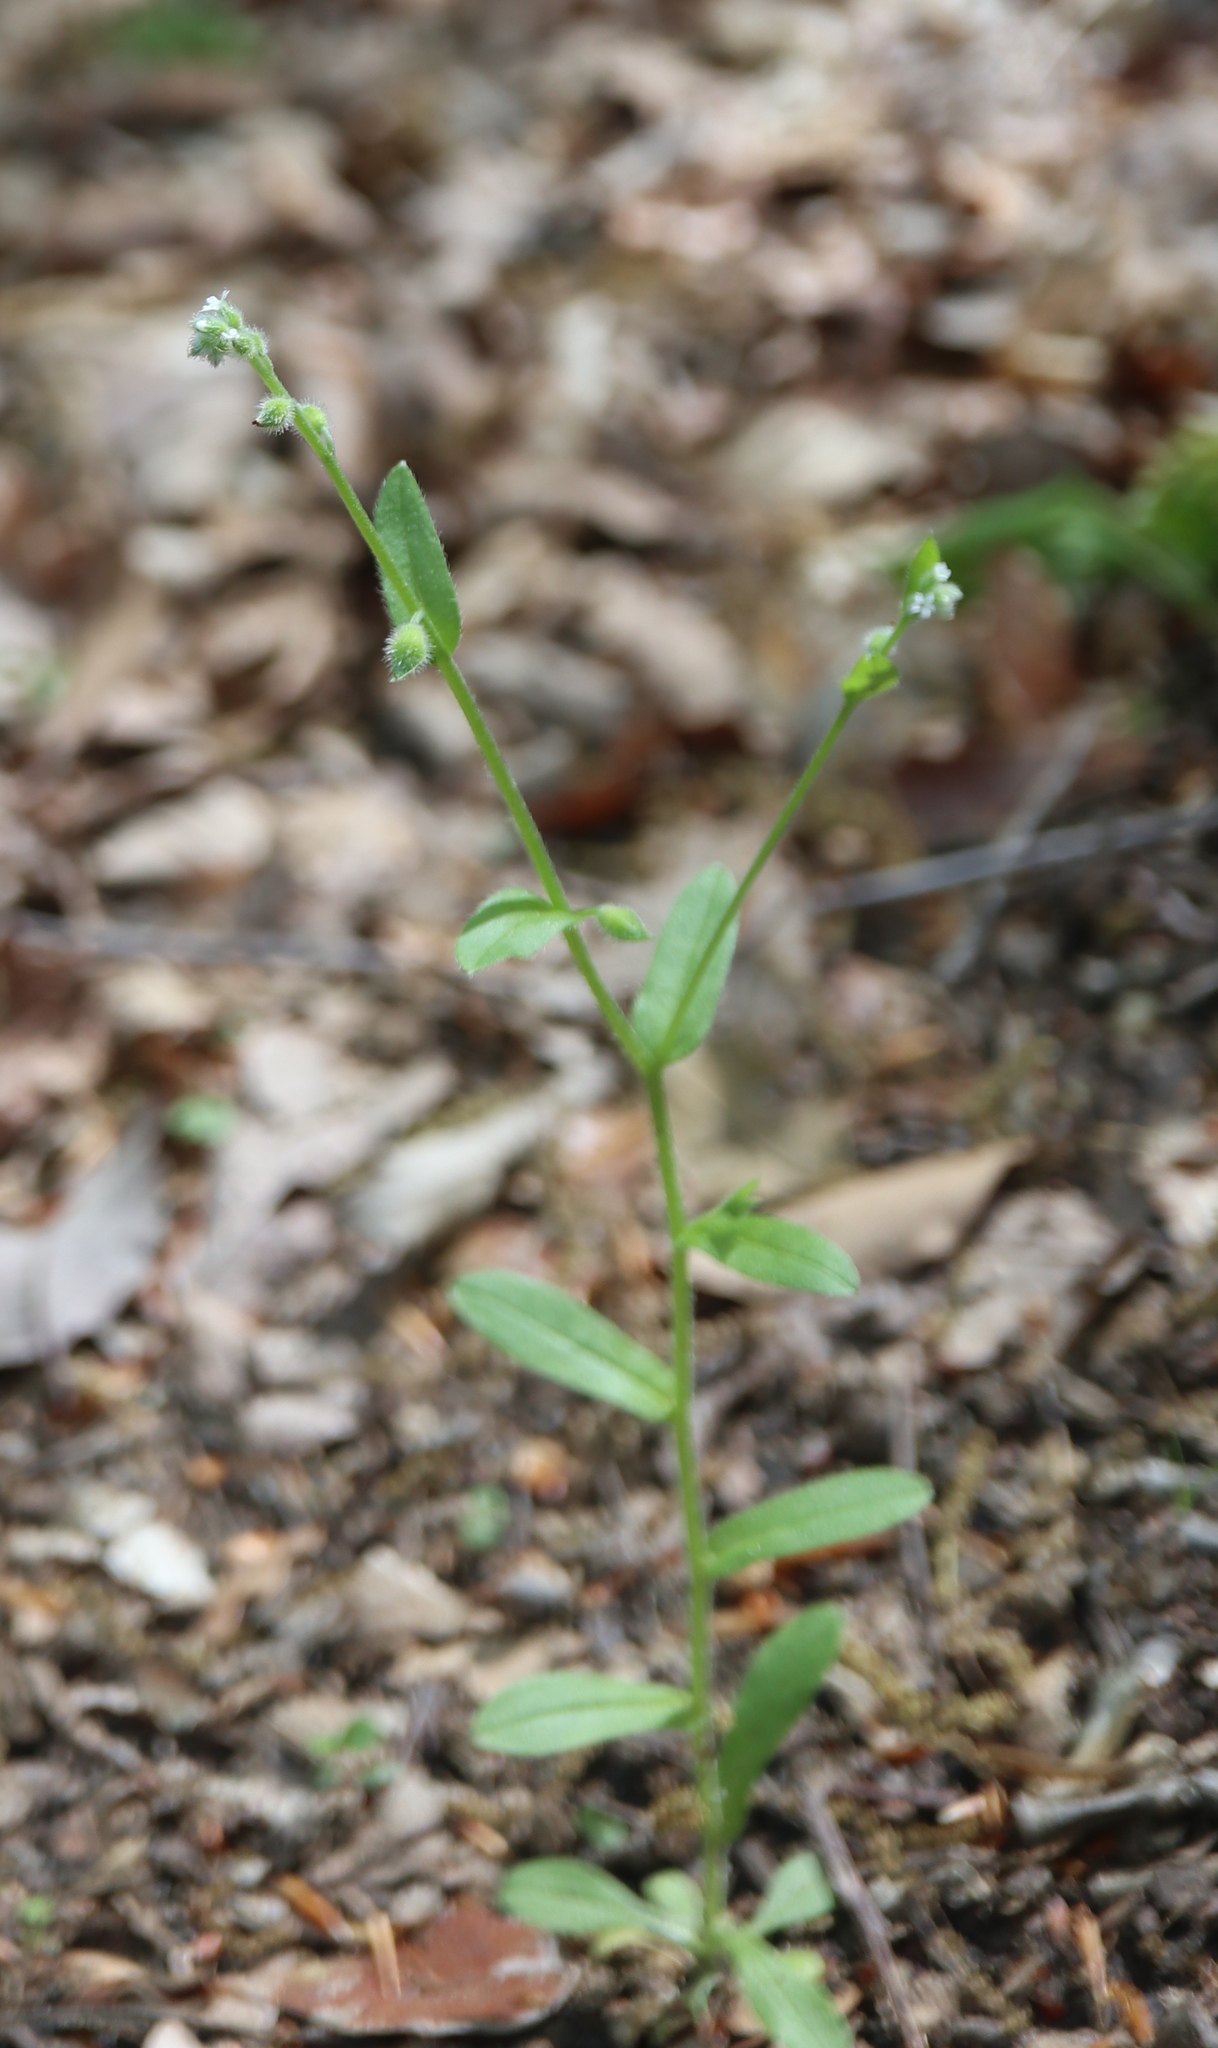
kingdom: Plantae
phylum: Tracheophyta
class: Magnoliopsida
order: Boraginales
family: Boraginaceae
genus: Myosotis
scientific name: Myosotis macrosperma
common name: Large-seed forget-me-not
